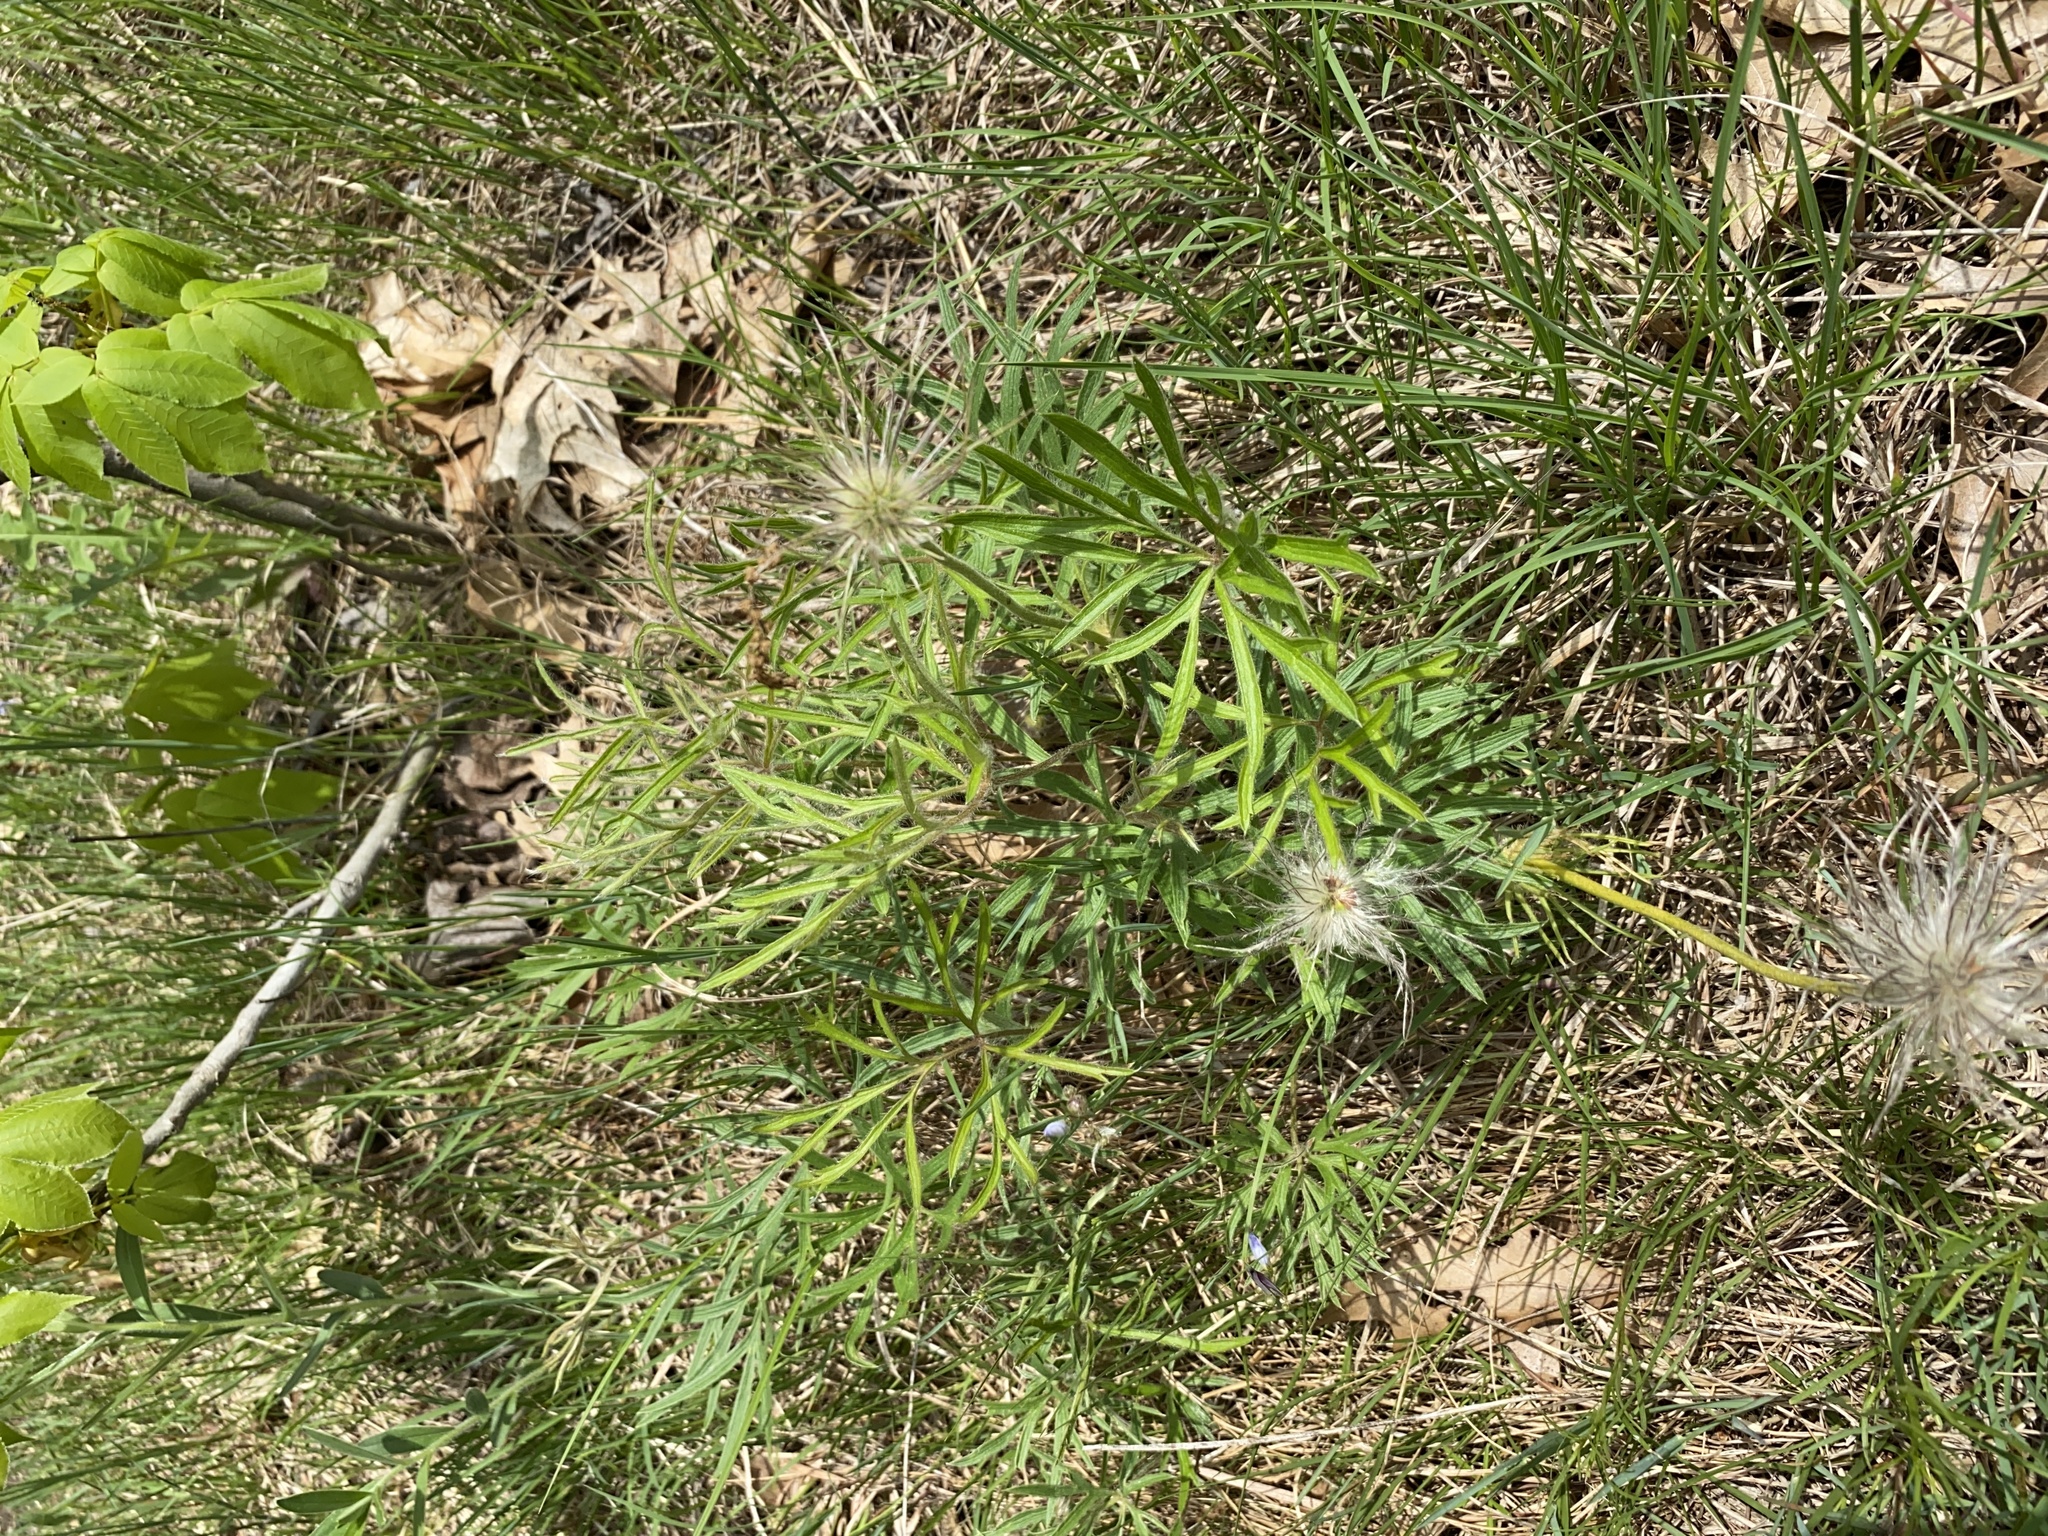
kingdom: Plantae
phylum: Tracheophyta
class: Magnoliopsida
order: Ranunculales
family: Ranunculaceae
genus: Pulsatilla
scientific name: Pulsatilla nuttalliana
